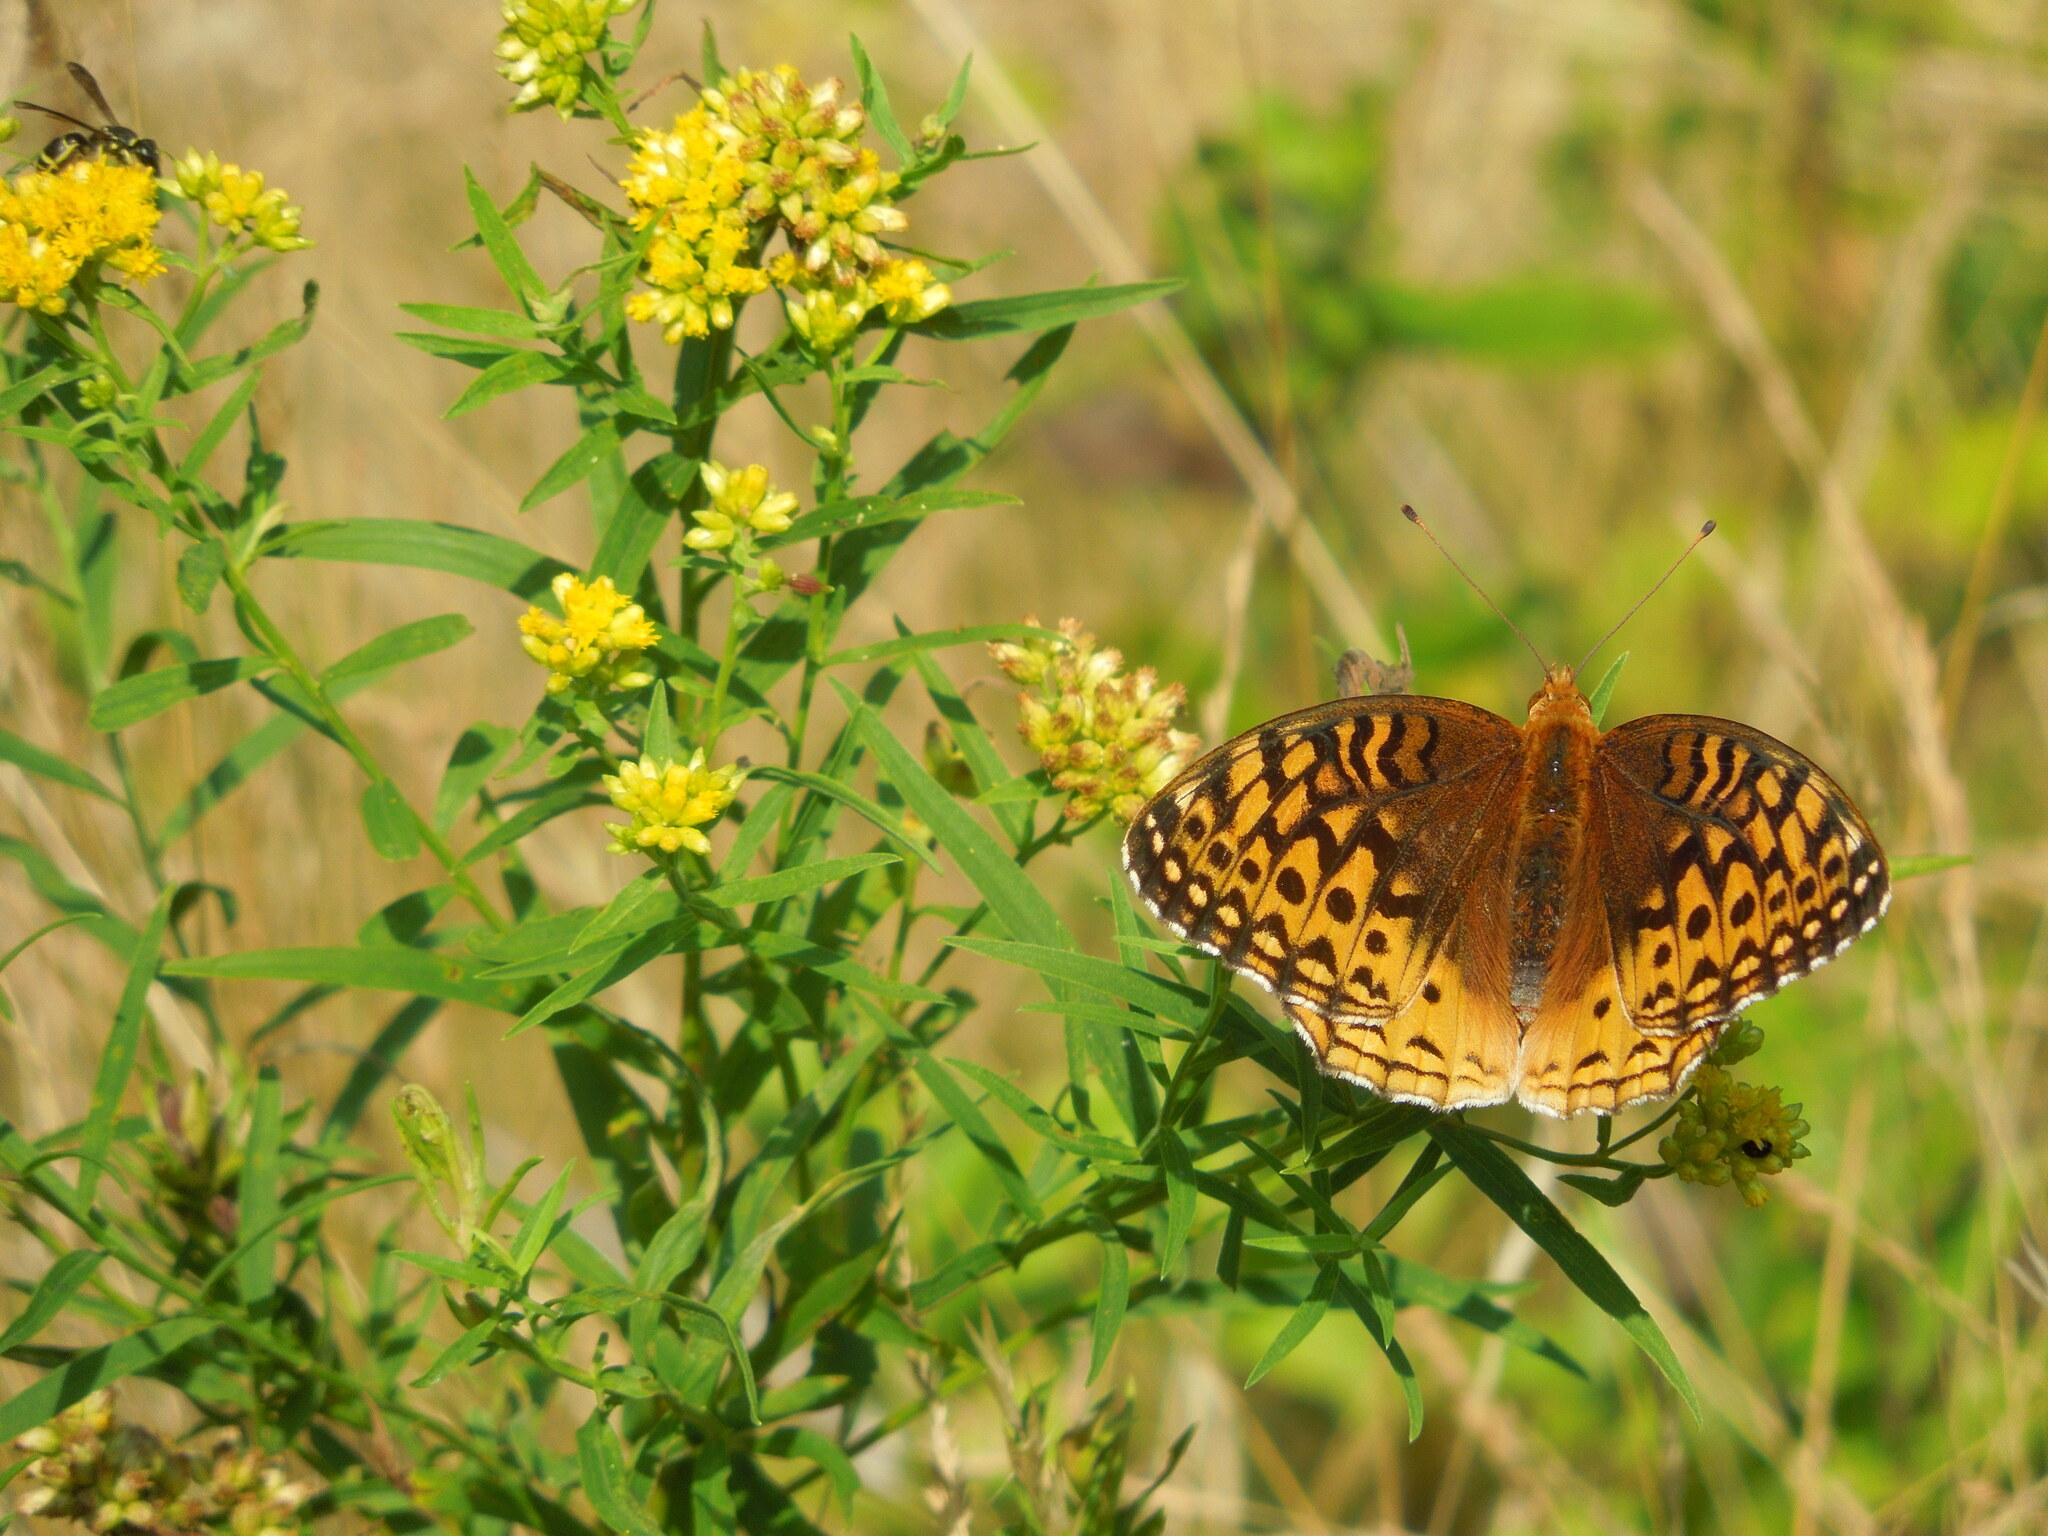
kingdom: Animalia
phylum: Arthropoda
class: Insecta
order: Lepidoptera
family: Nymphalidae
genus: Speyeria
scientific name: Speyeria cybele
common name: Great spangled fritillary
